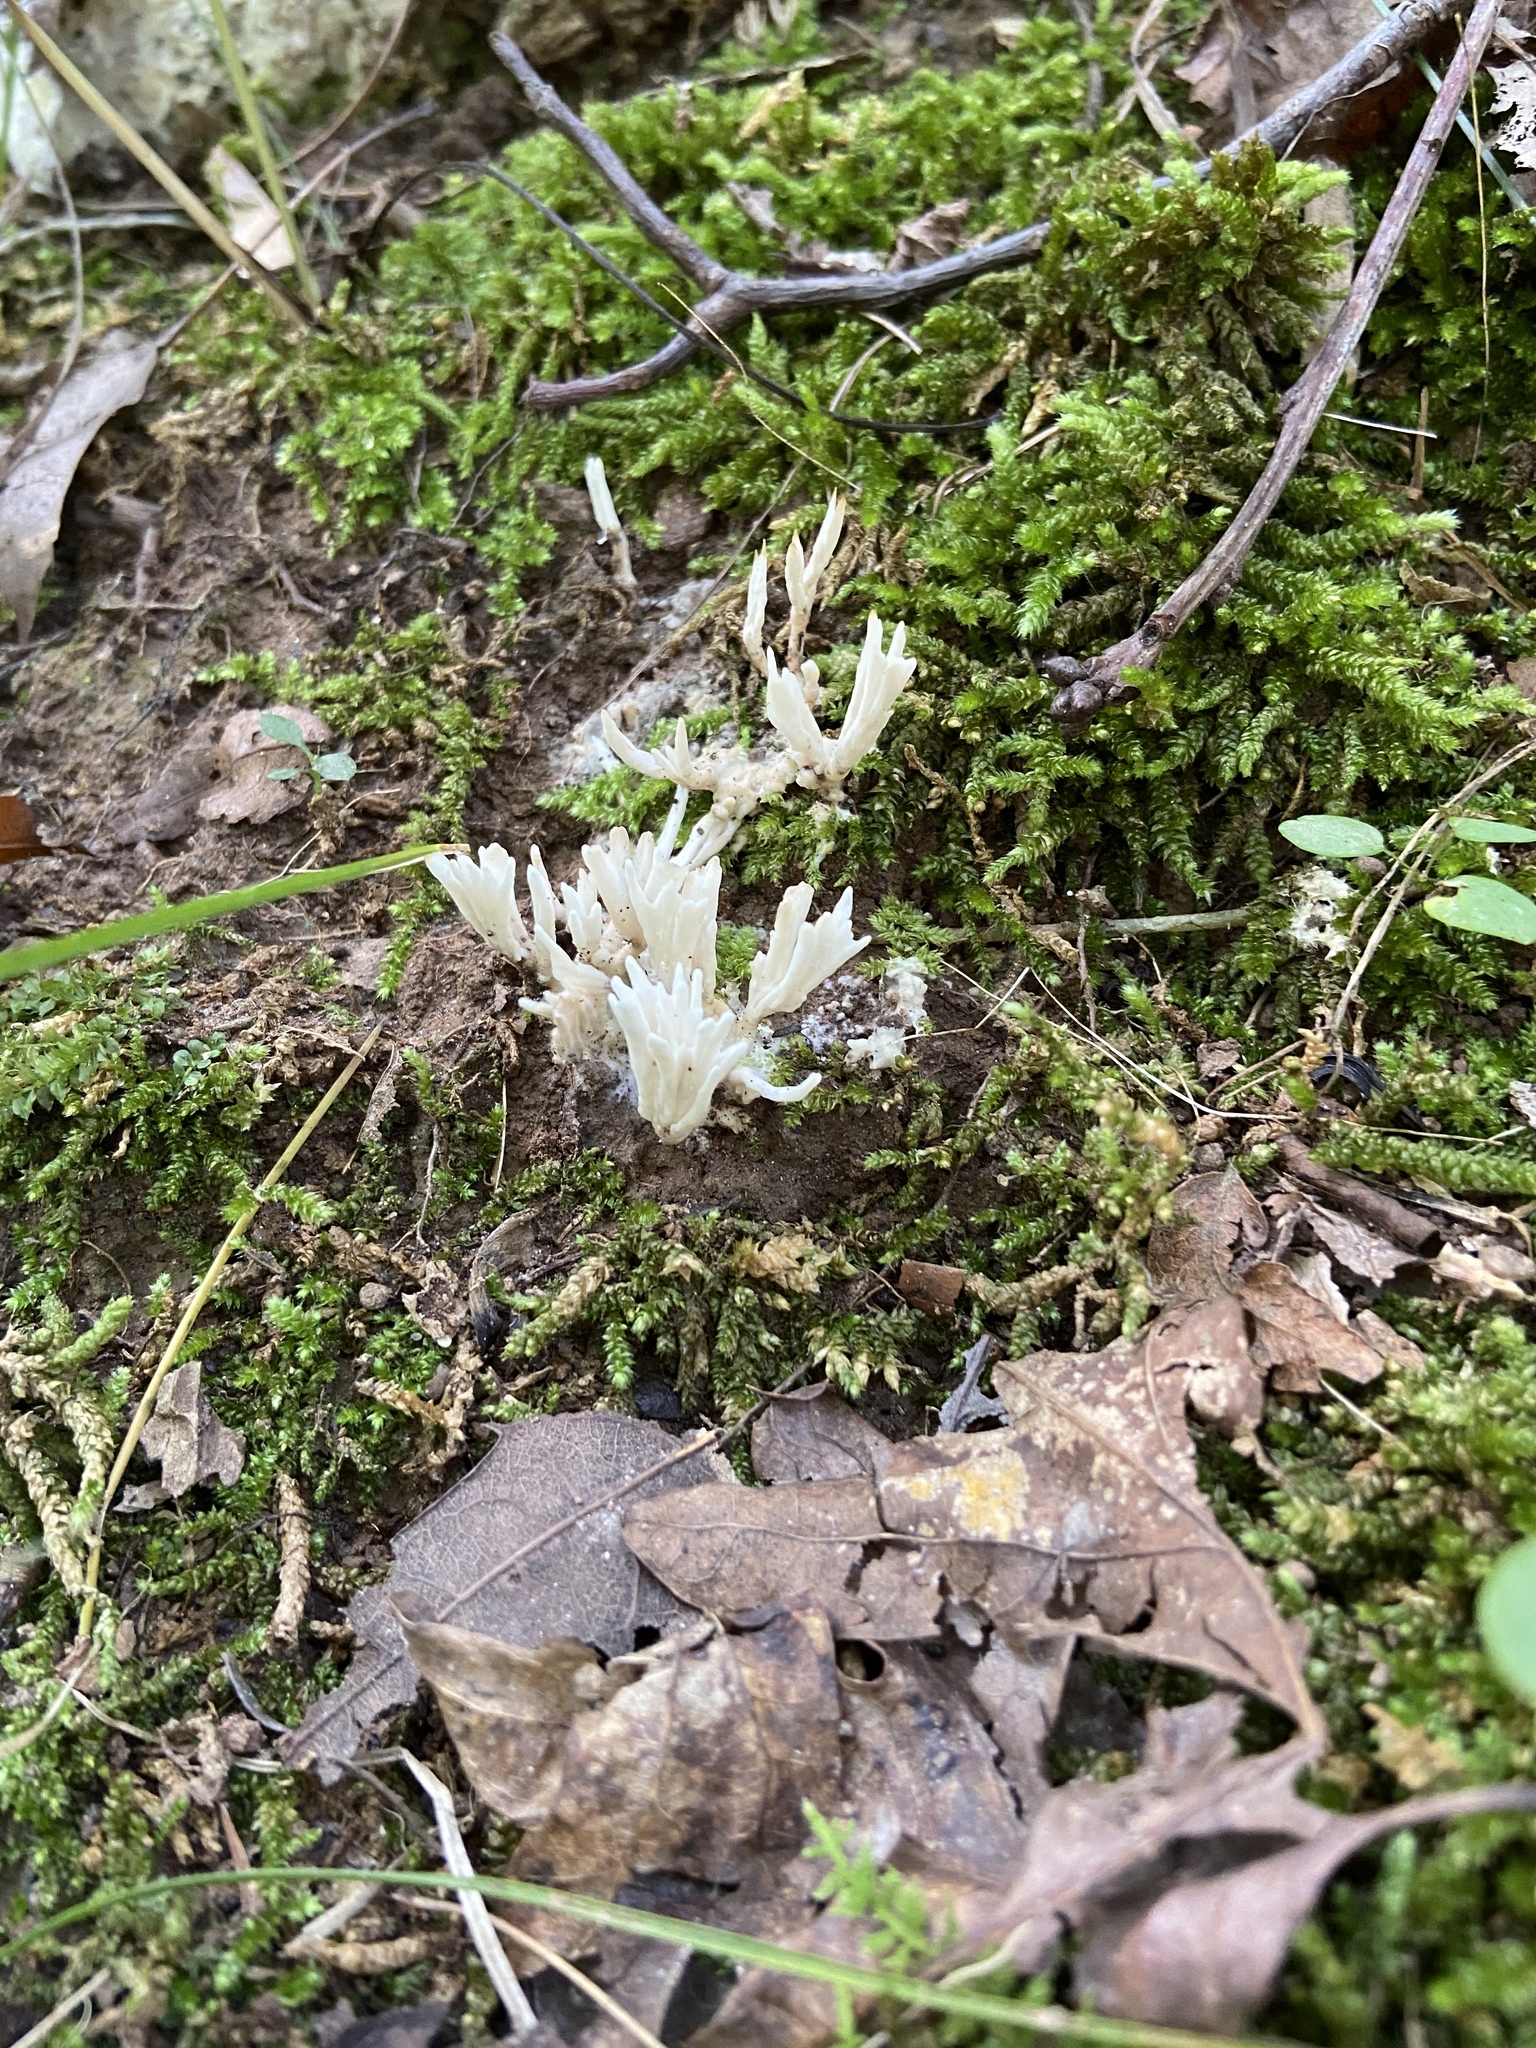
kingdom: Fungi
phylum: Basidiomycota
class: Agaricomycetes
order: Sebacinales
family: Sebacinaceae
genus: Sebacina
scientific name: Sebacina schweinitzii
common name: Jellied false coral fungus
